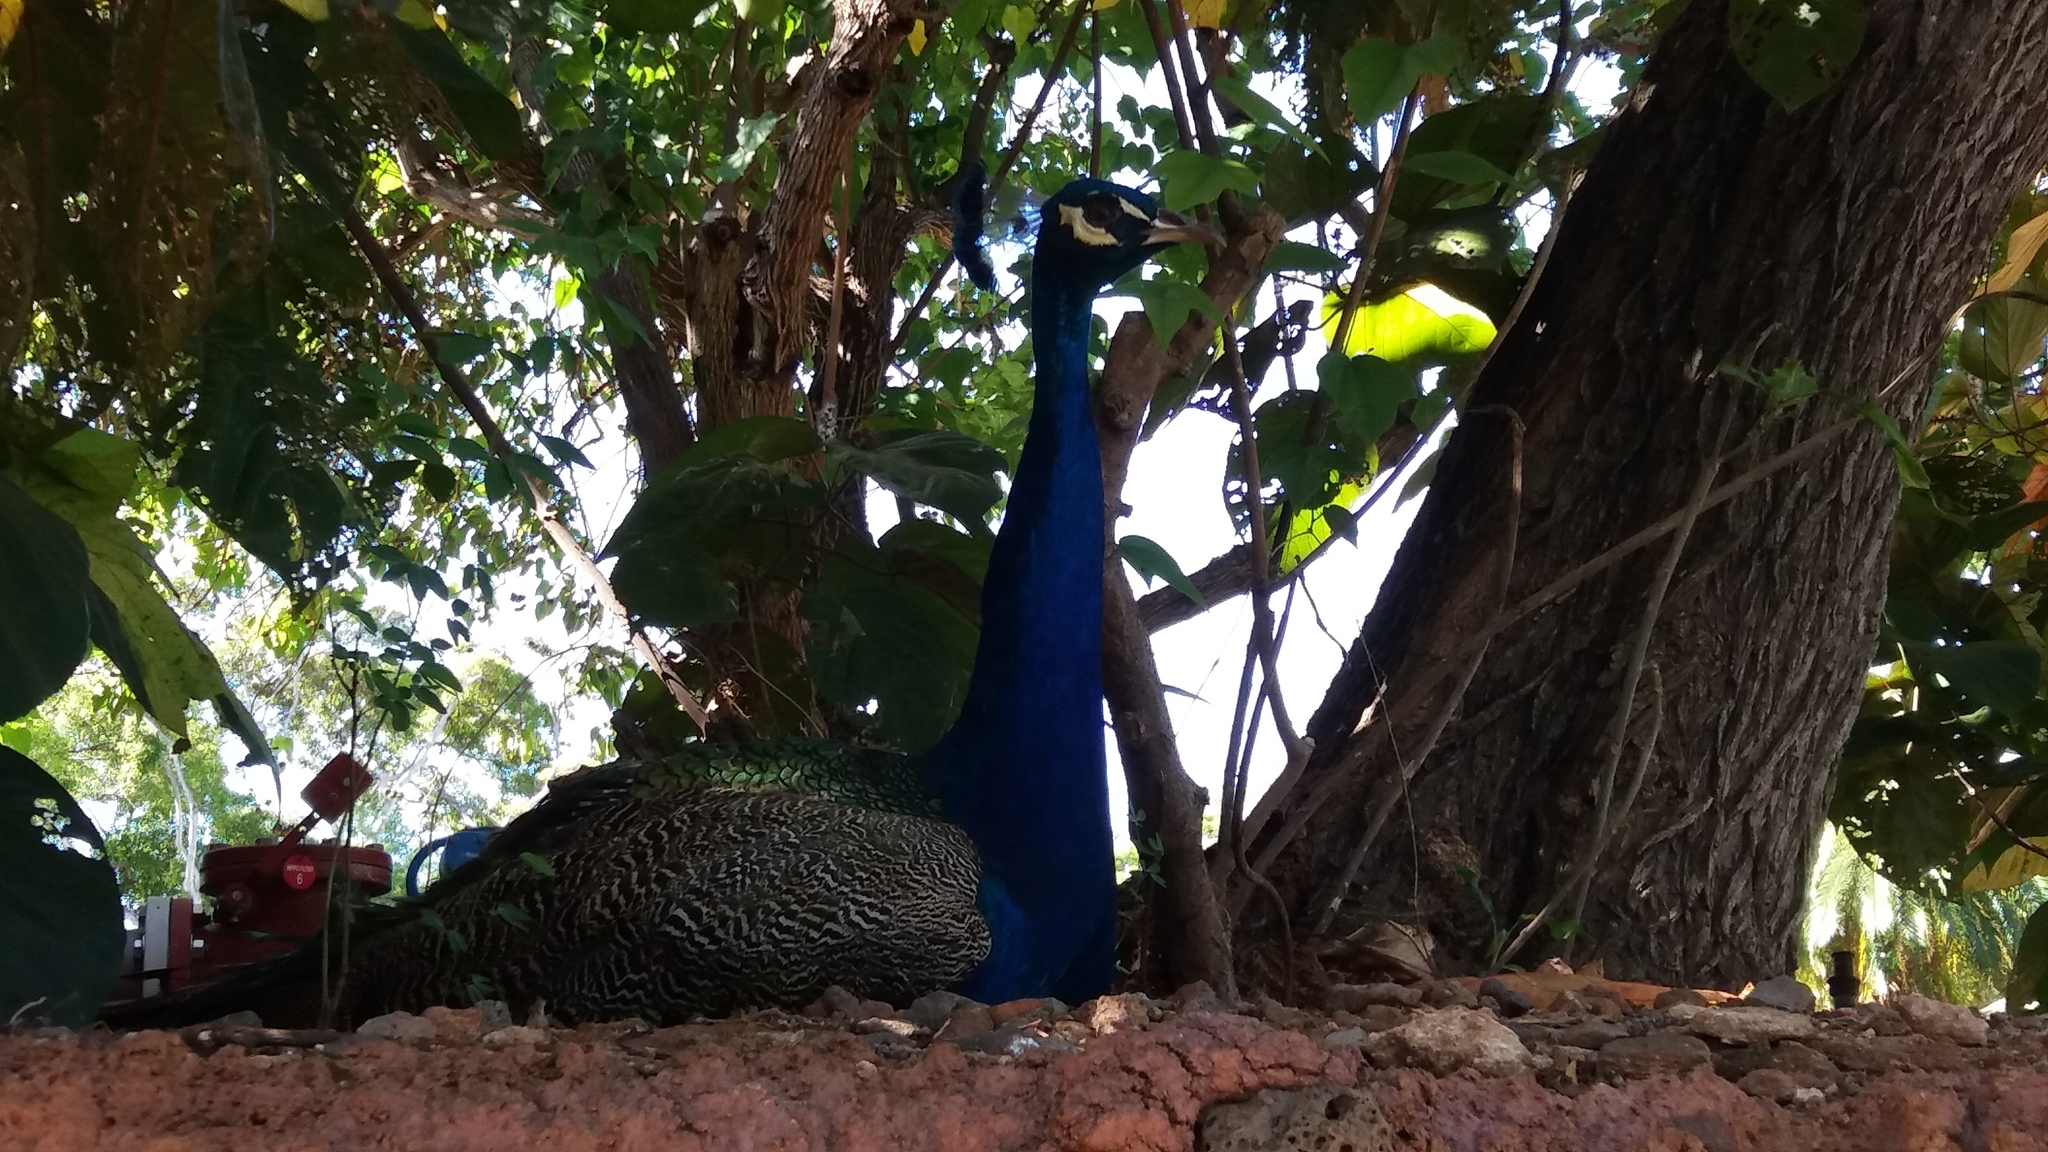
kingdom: Animalia
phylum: Chordata
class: Aves
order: Galliformes
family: Phasianidae
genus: Pavo
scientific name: Pavo cristatus
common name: Indian peafowl
